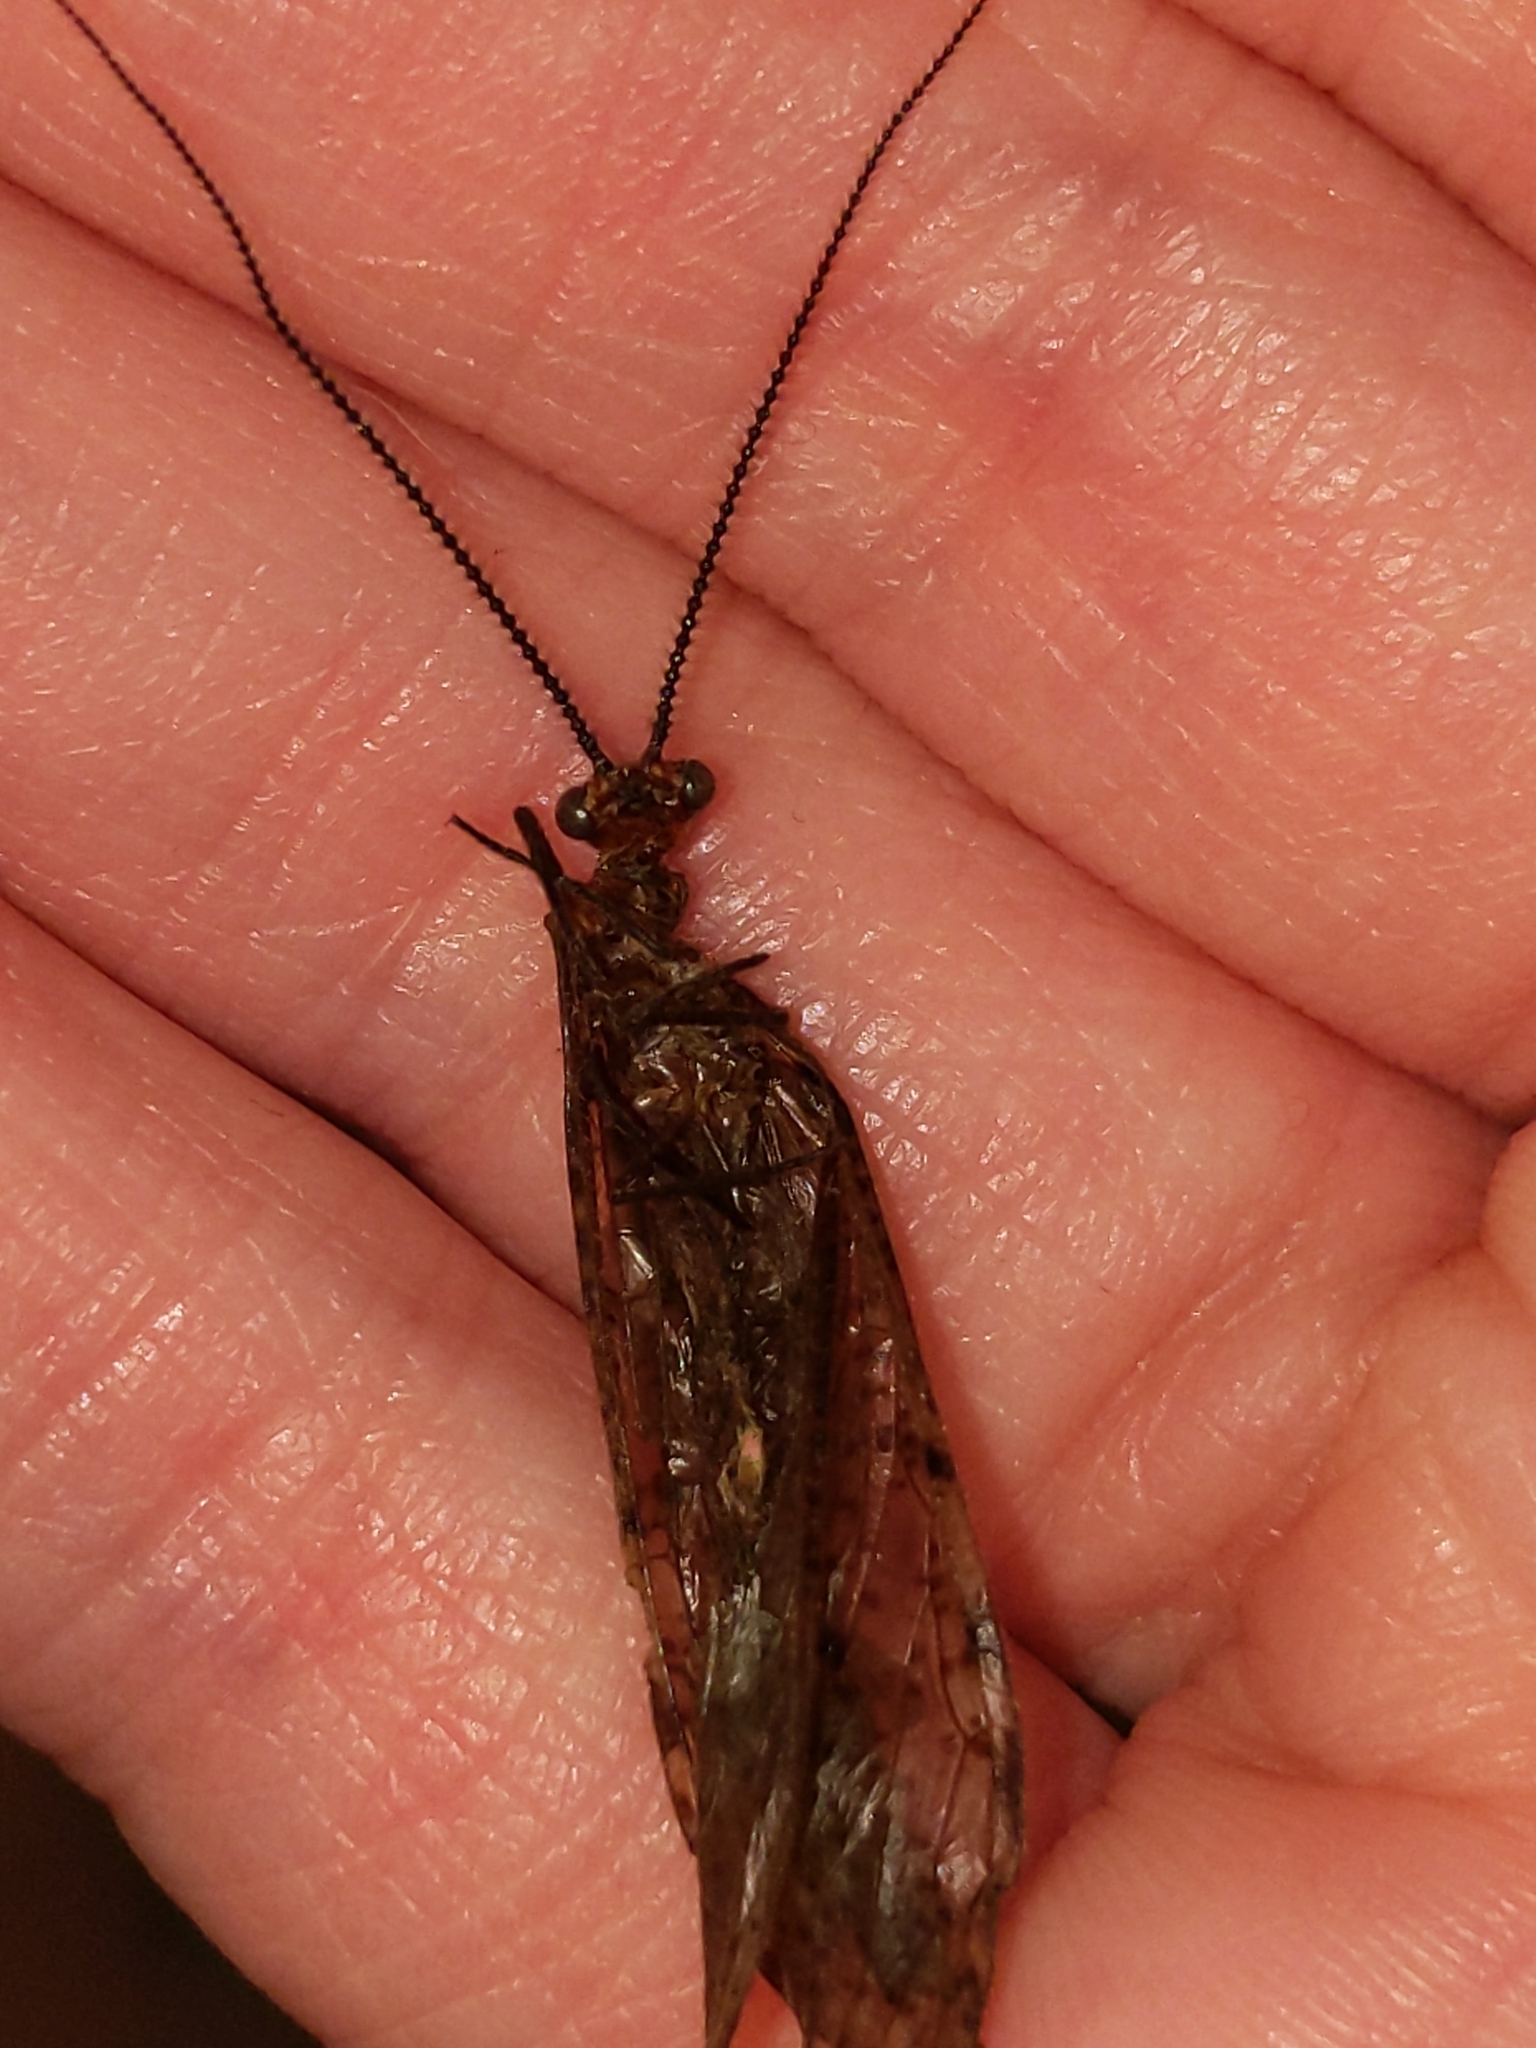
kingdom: Animalia
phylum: Arthropoda
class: Insecta
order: Megaloptera
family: Corydalidae
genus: Neohermes
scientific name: Neohermes concolor
